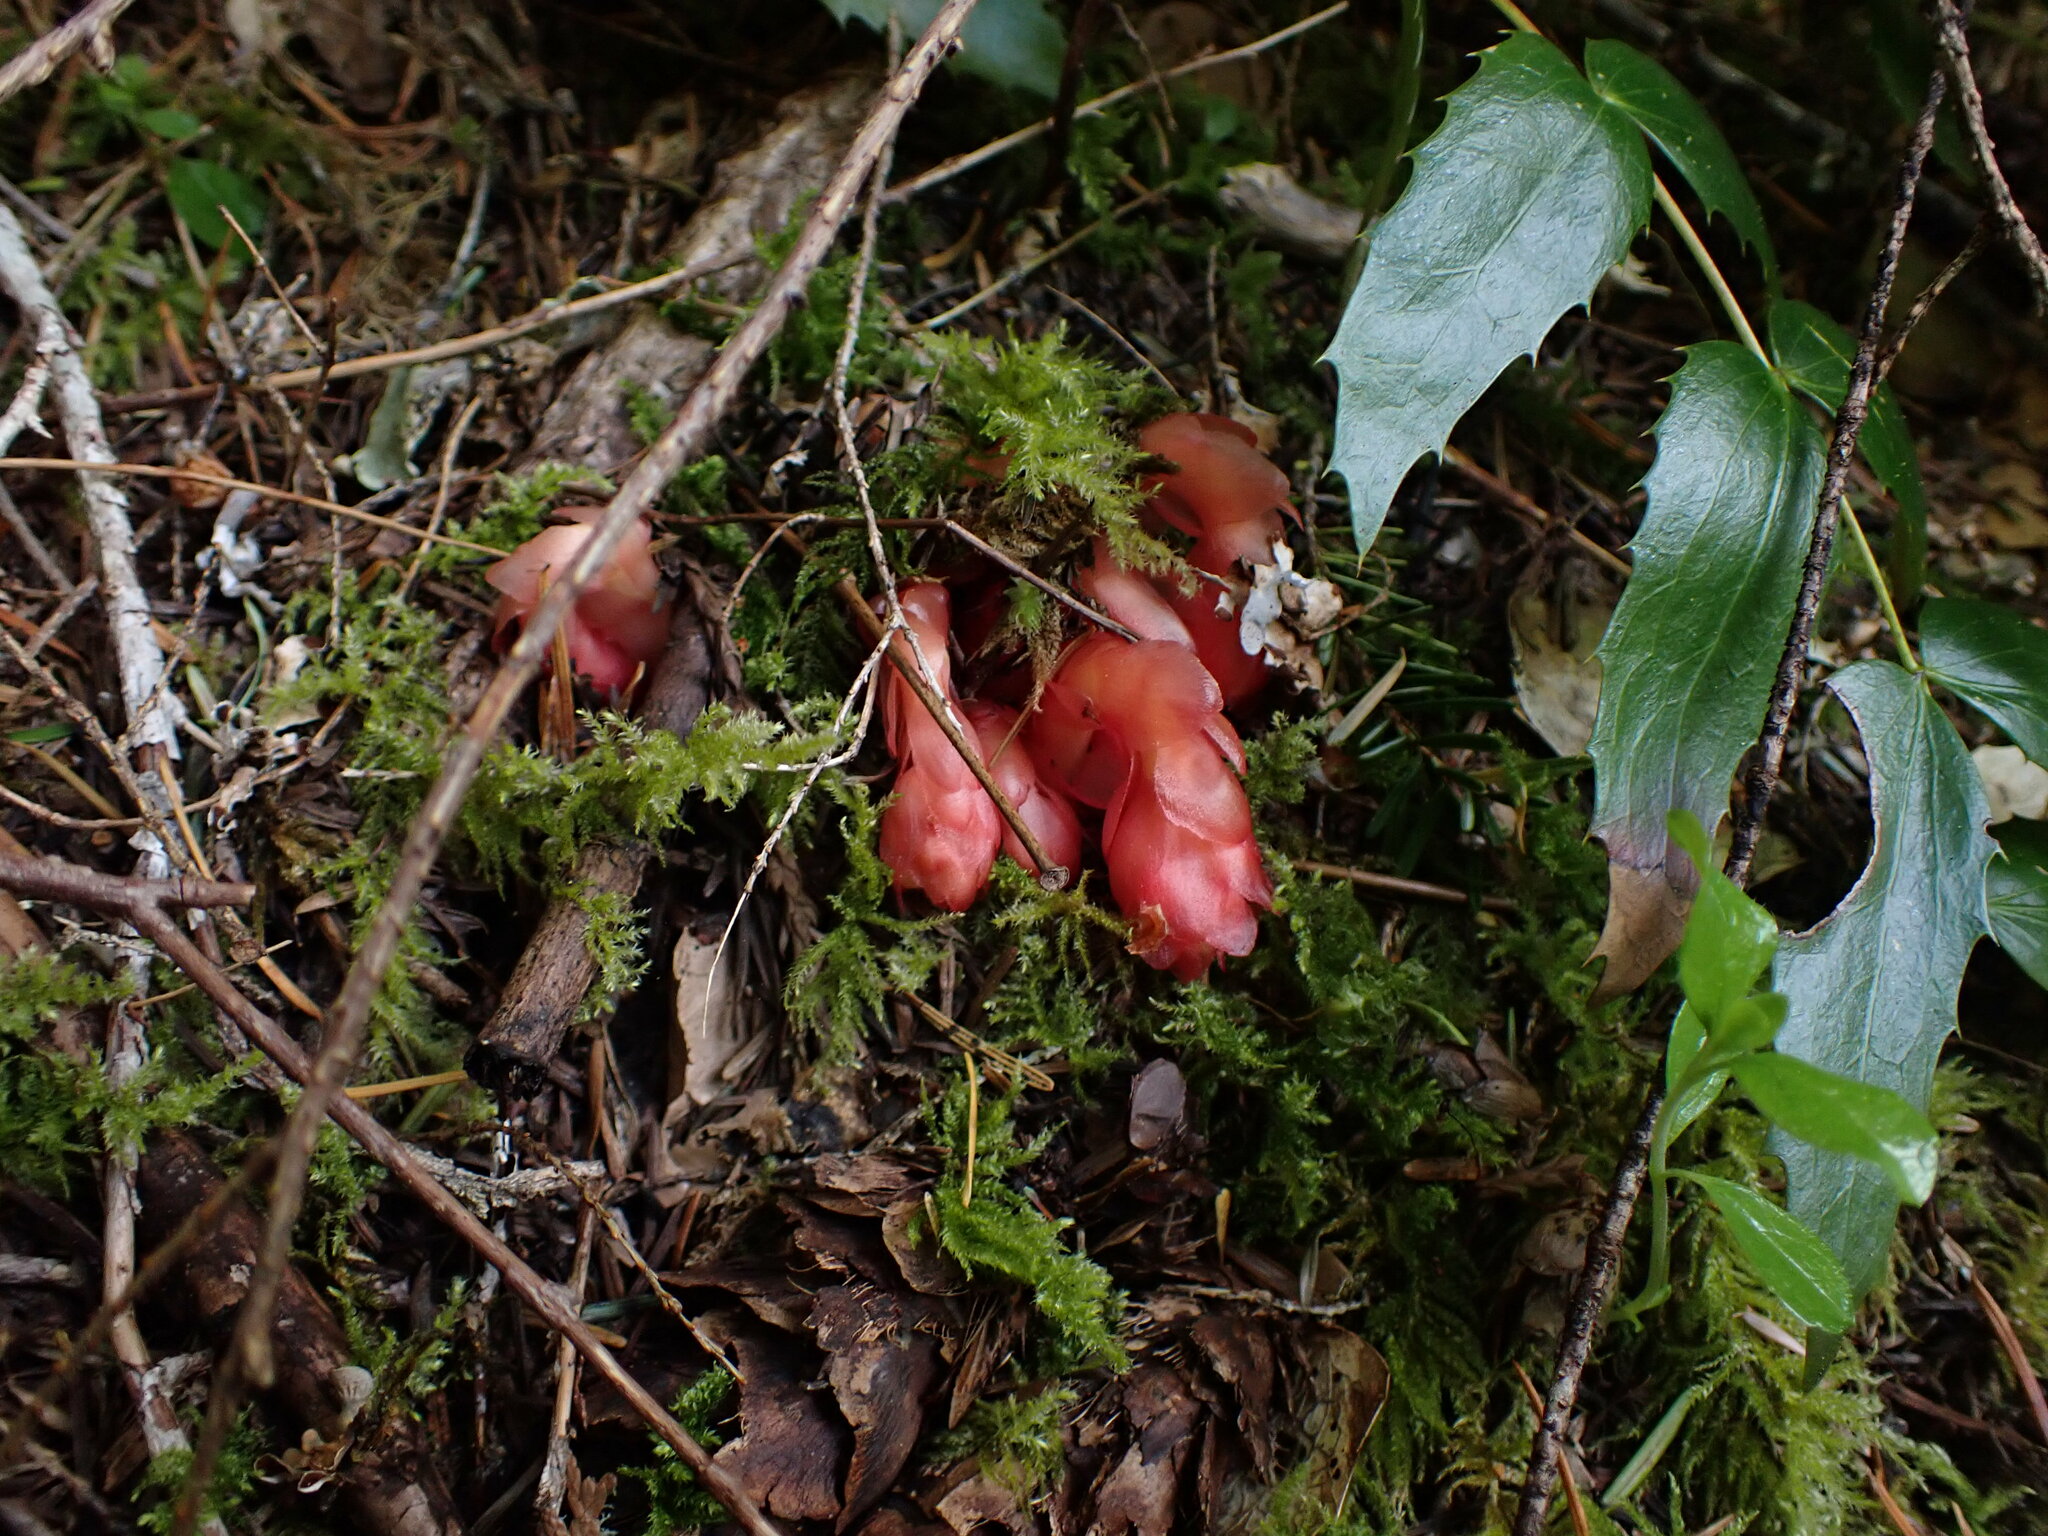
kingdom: Plantae
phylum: Tracheophyta
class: Magnoliopsida
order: Ericales
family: Ericaceae
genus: Hypopitys
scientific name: Hypopitys monotropa
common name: Yellow bird's-nest
